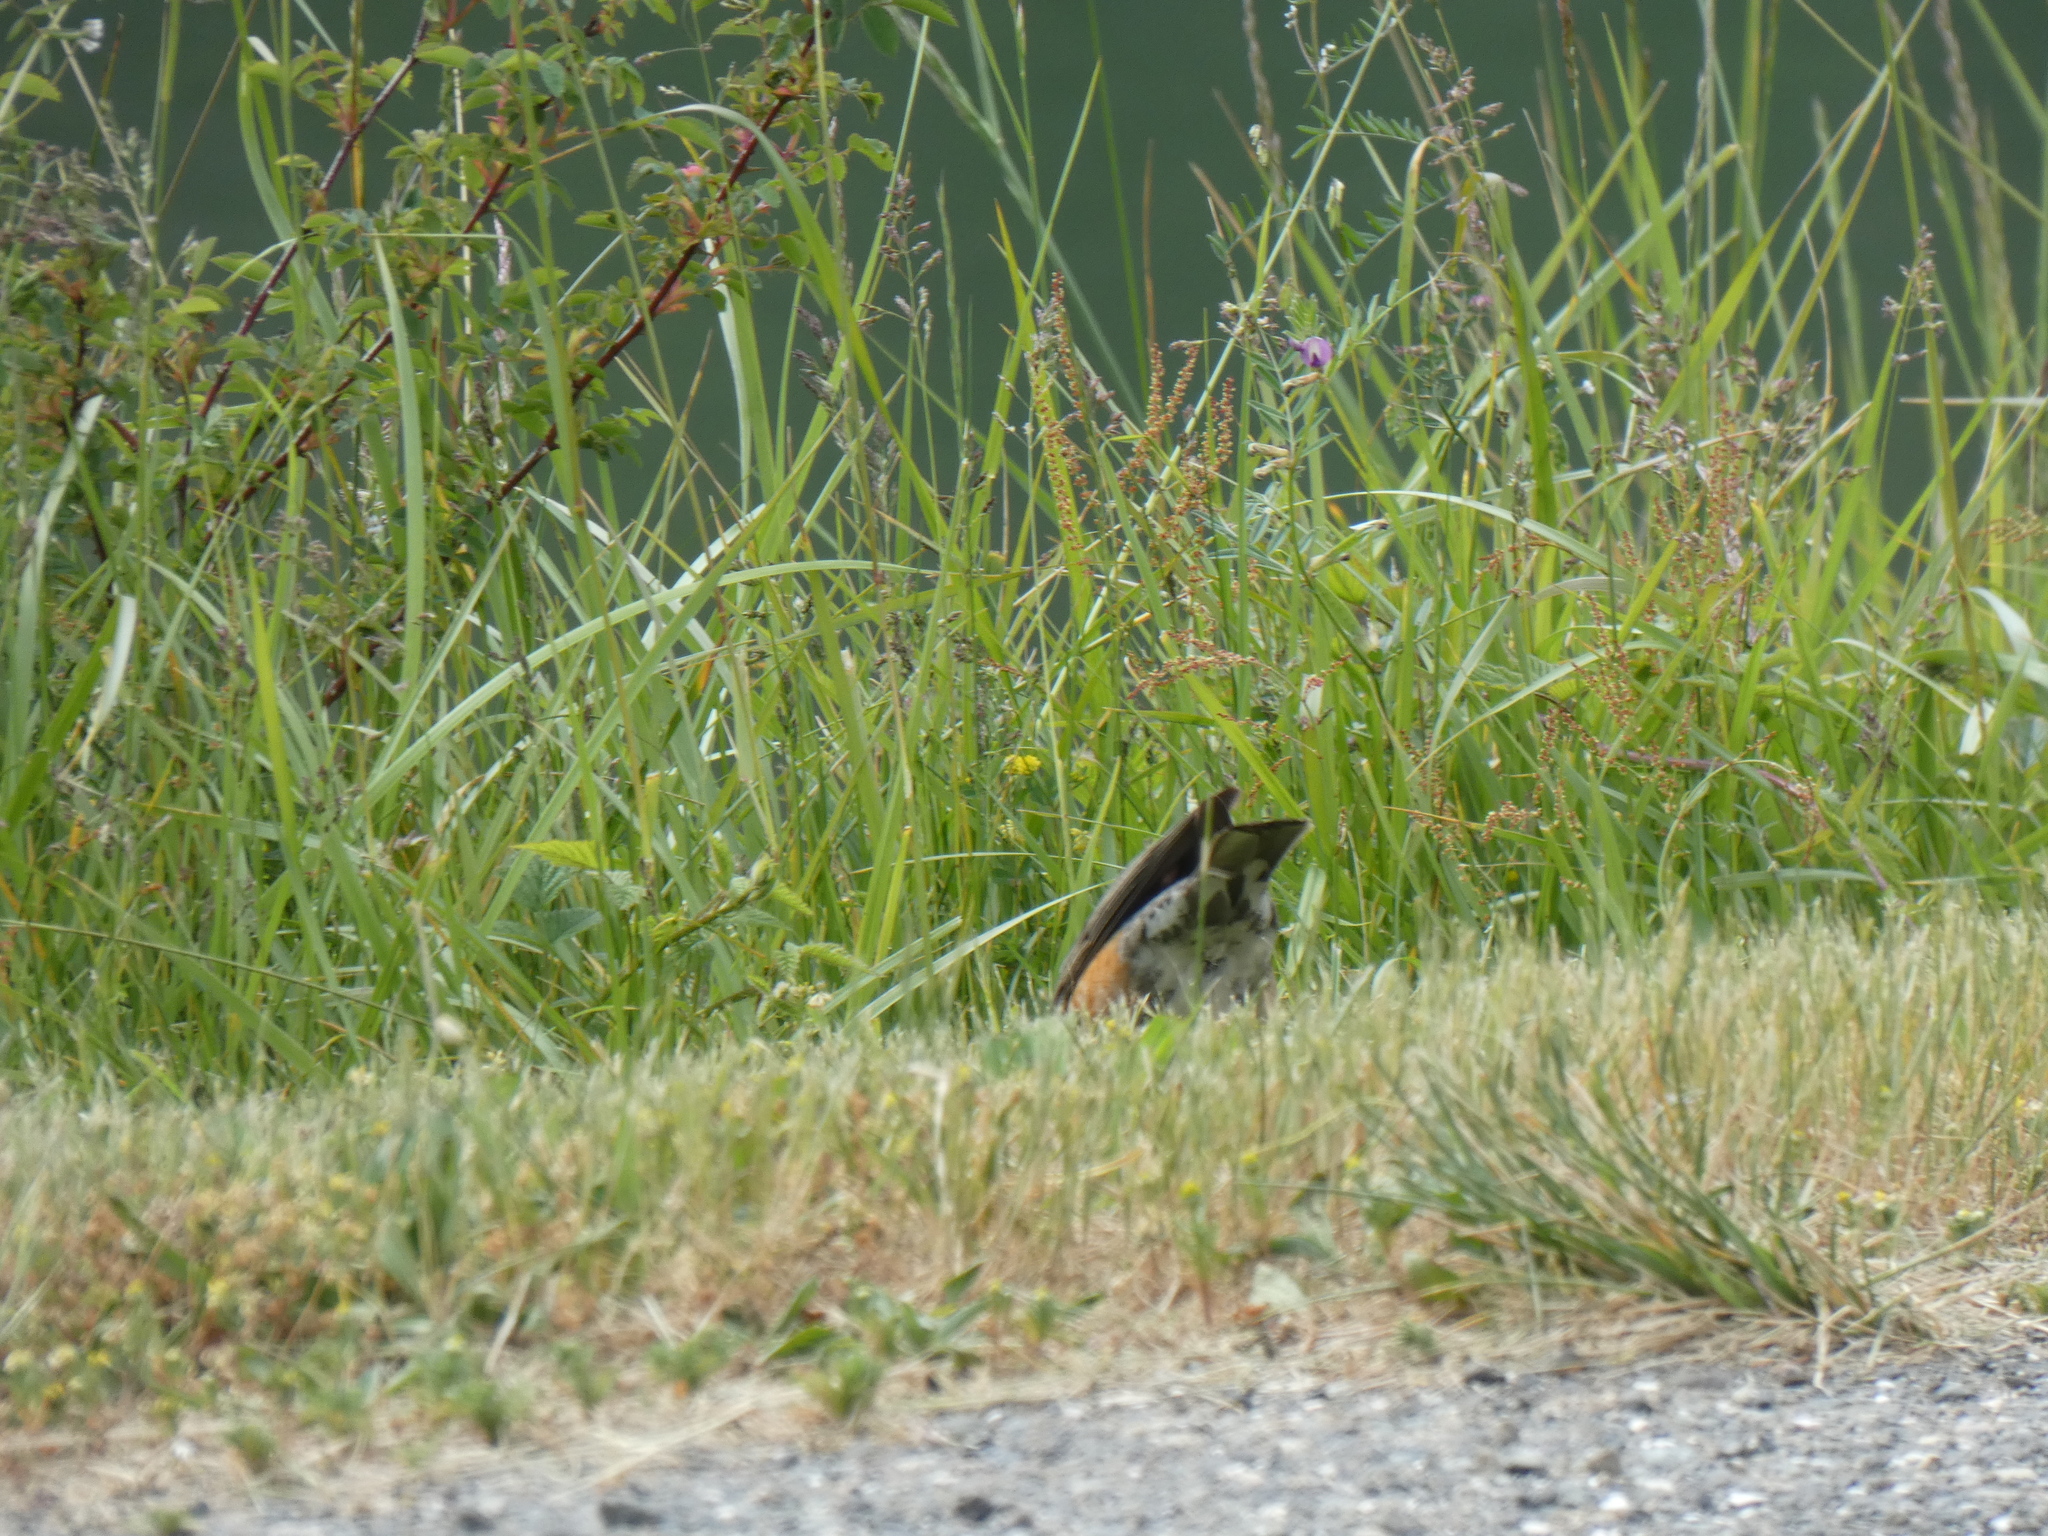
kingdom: Animalia
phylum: Chordata
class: Aves
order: Passeriformes
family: Turdidae
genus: Turdus
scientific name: Turdus migratorius
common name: American robin
